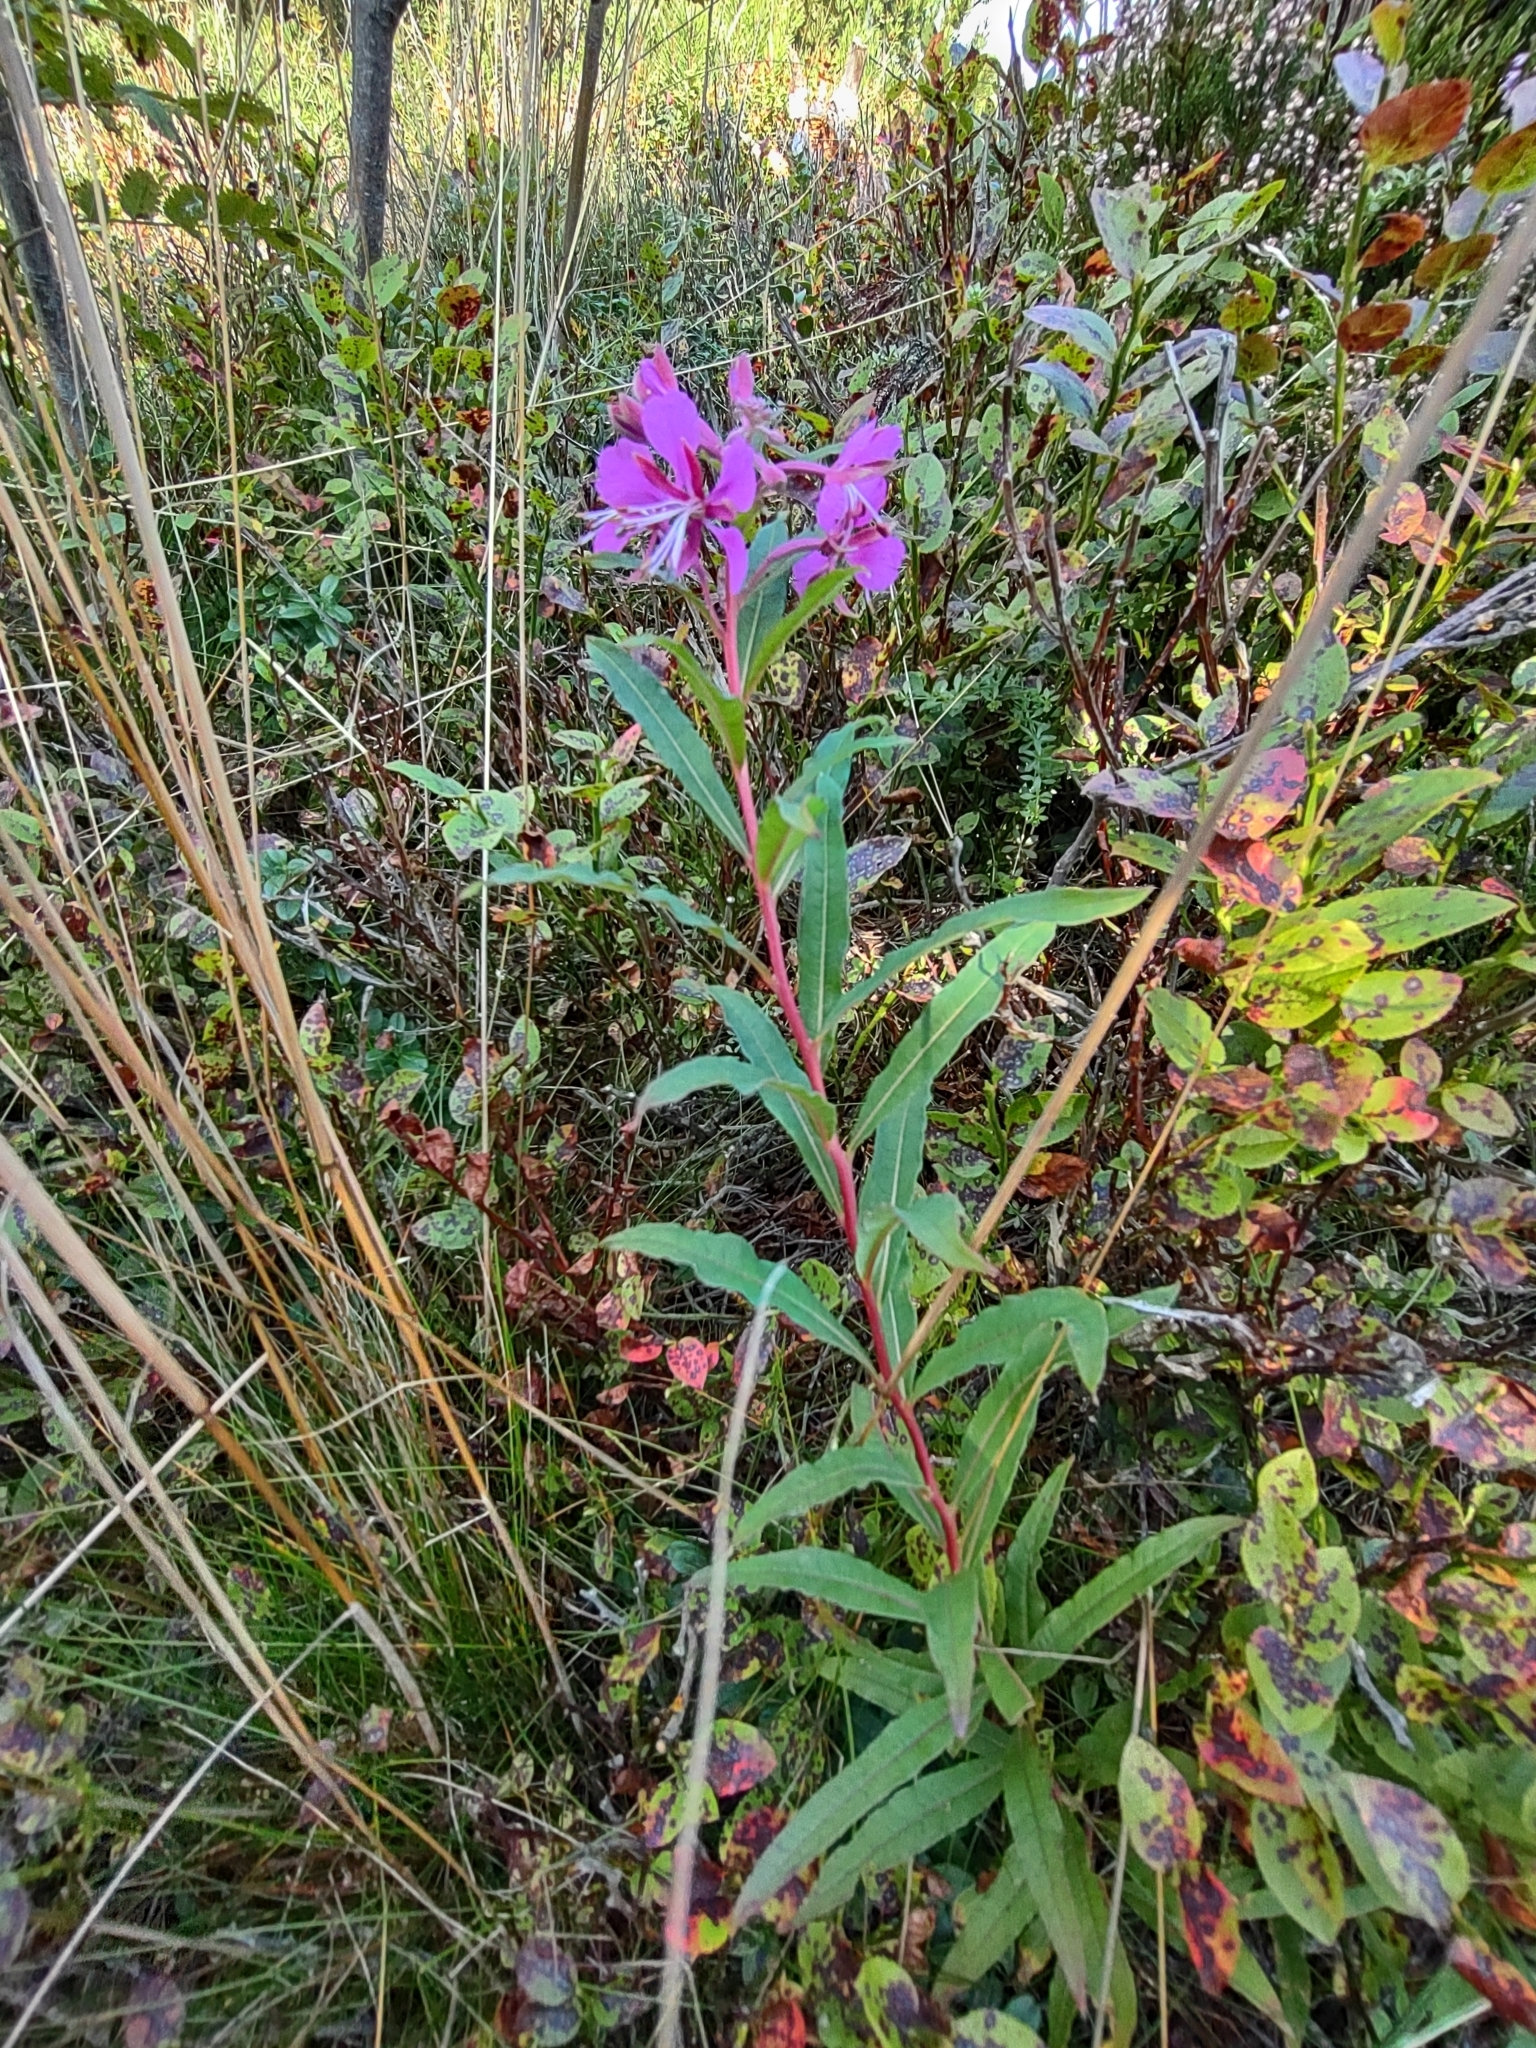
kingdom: Plantae
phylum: Tracheophyta
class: Magnoliopsida
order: Myrtales
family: Onagraceae
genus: Chamaenerion
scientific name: Chamaenerion angustifolium
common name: Fireweed
